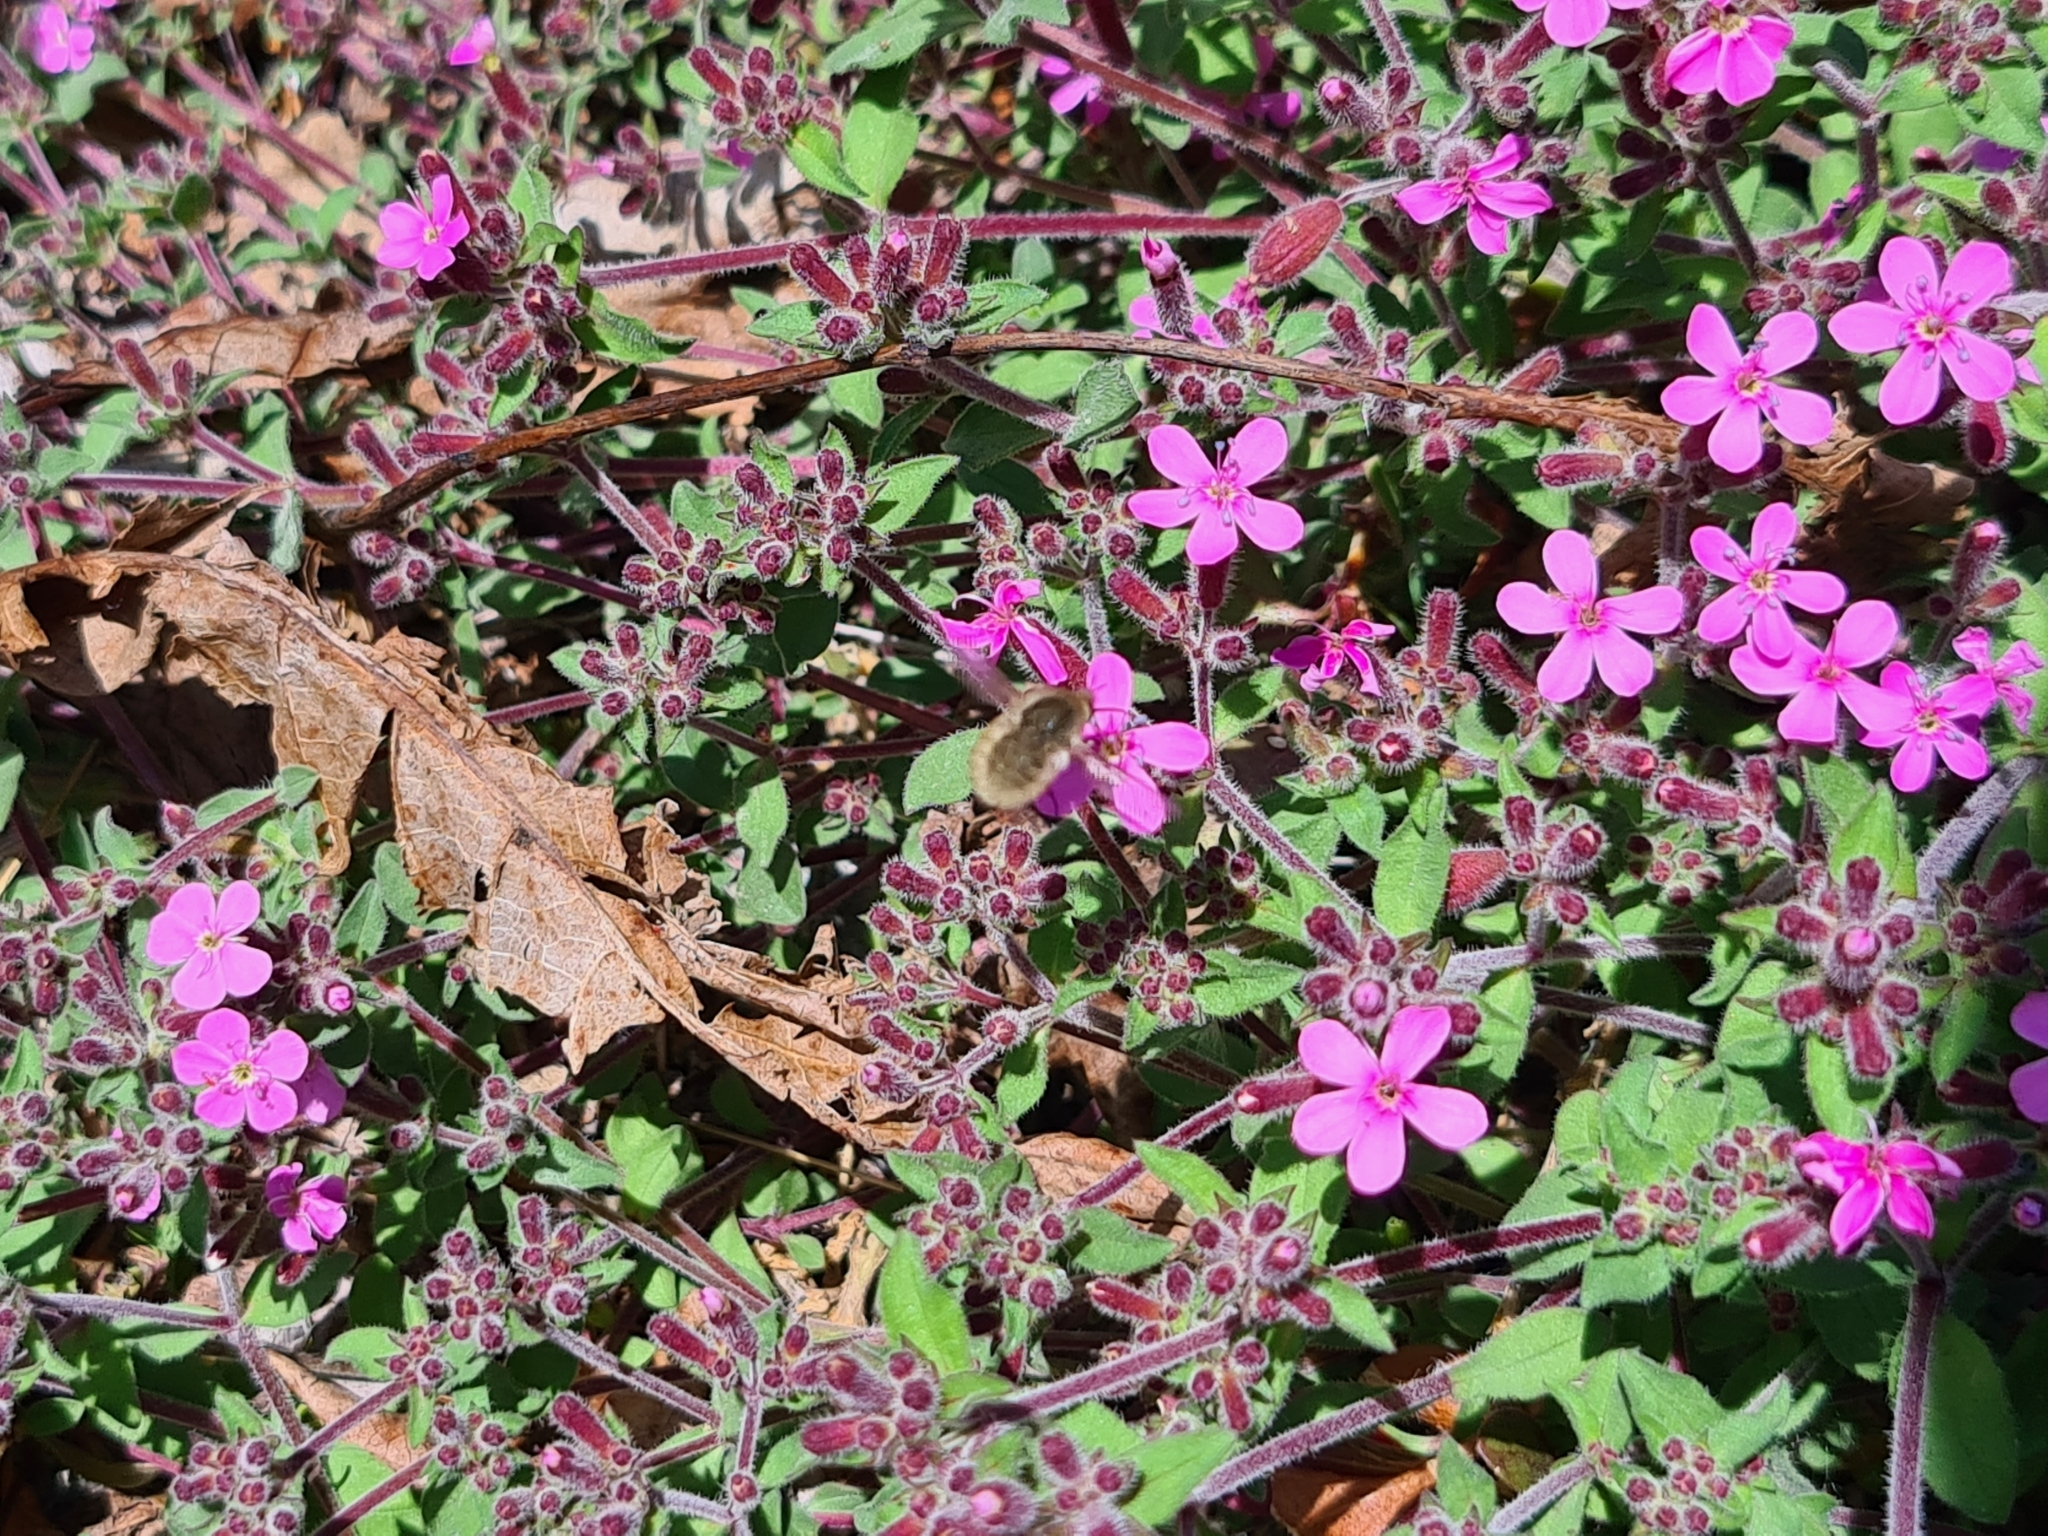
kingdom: Plantae
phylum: Tracheophyta
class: Magnoliopsida
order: Caryophyllales
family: Caryophyllaceae
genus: Saponaria
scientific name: Saponaria ocymoides
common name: Rock soapwort
